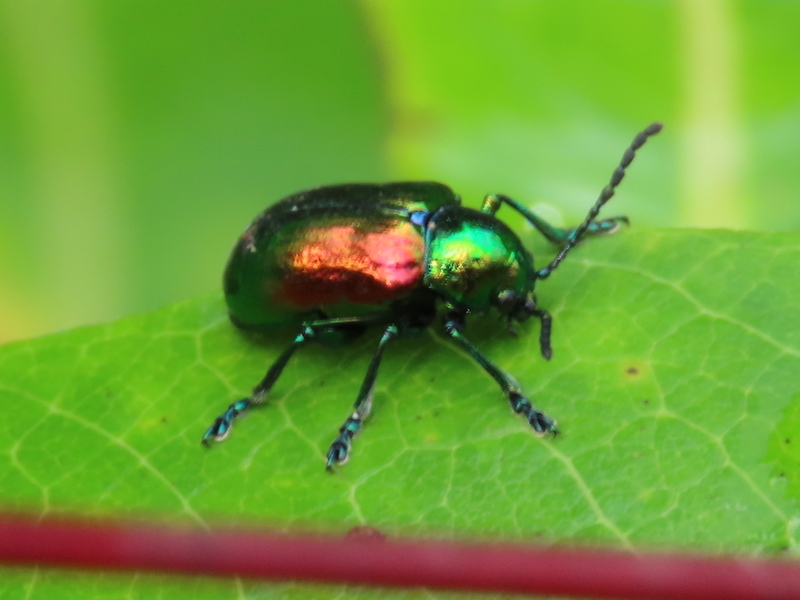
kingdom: Animalia
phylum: Arthropoda
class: Insecta
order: Coleoptera
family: Chrysomelidae
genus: Chrysochus
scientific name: Chrysochus auratus
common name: Dogbane leaf beetle
